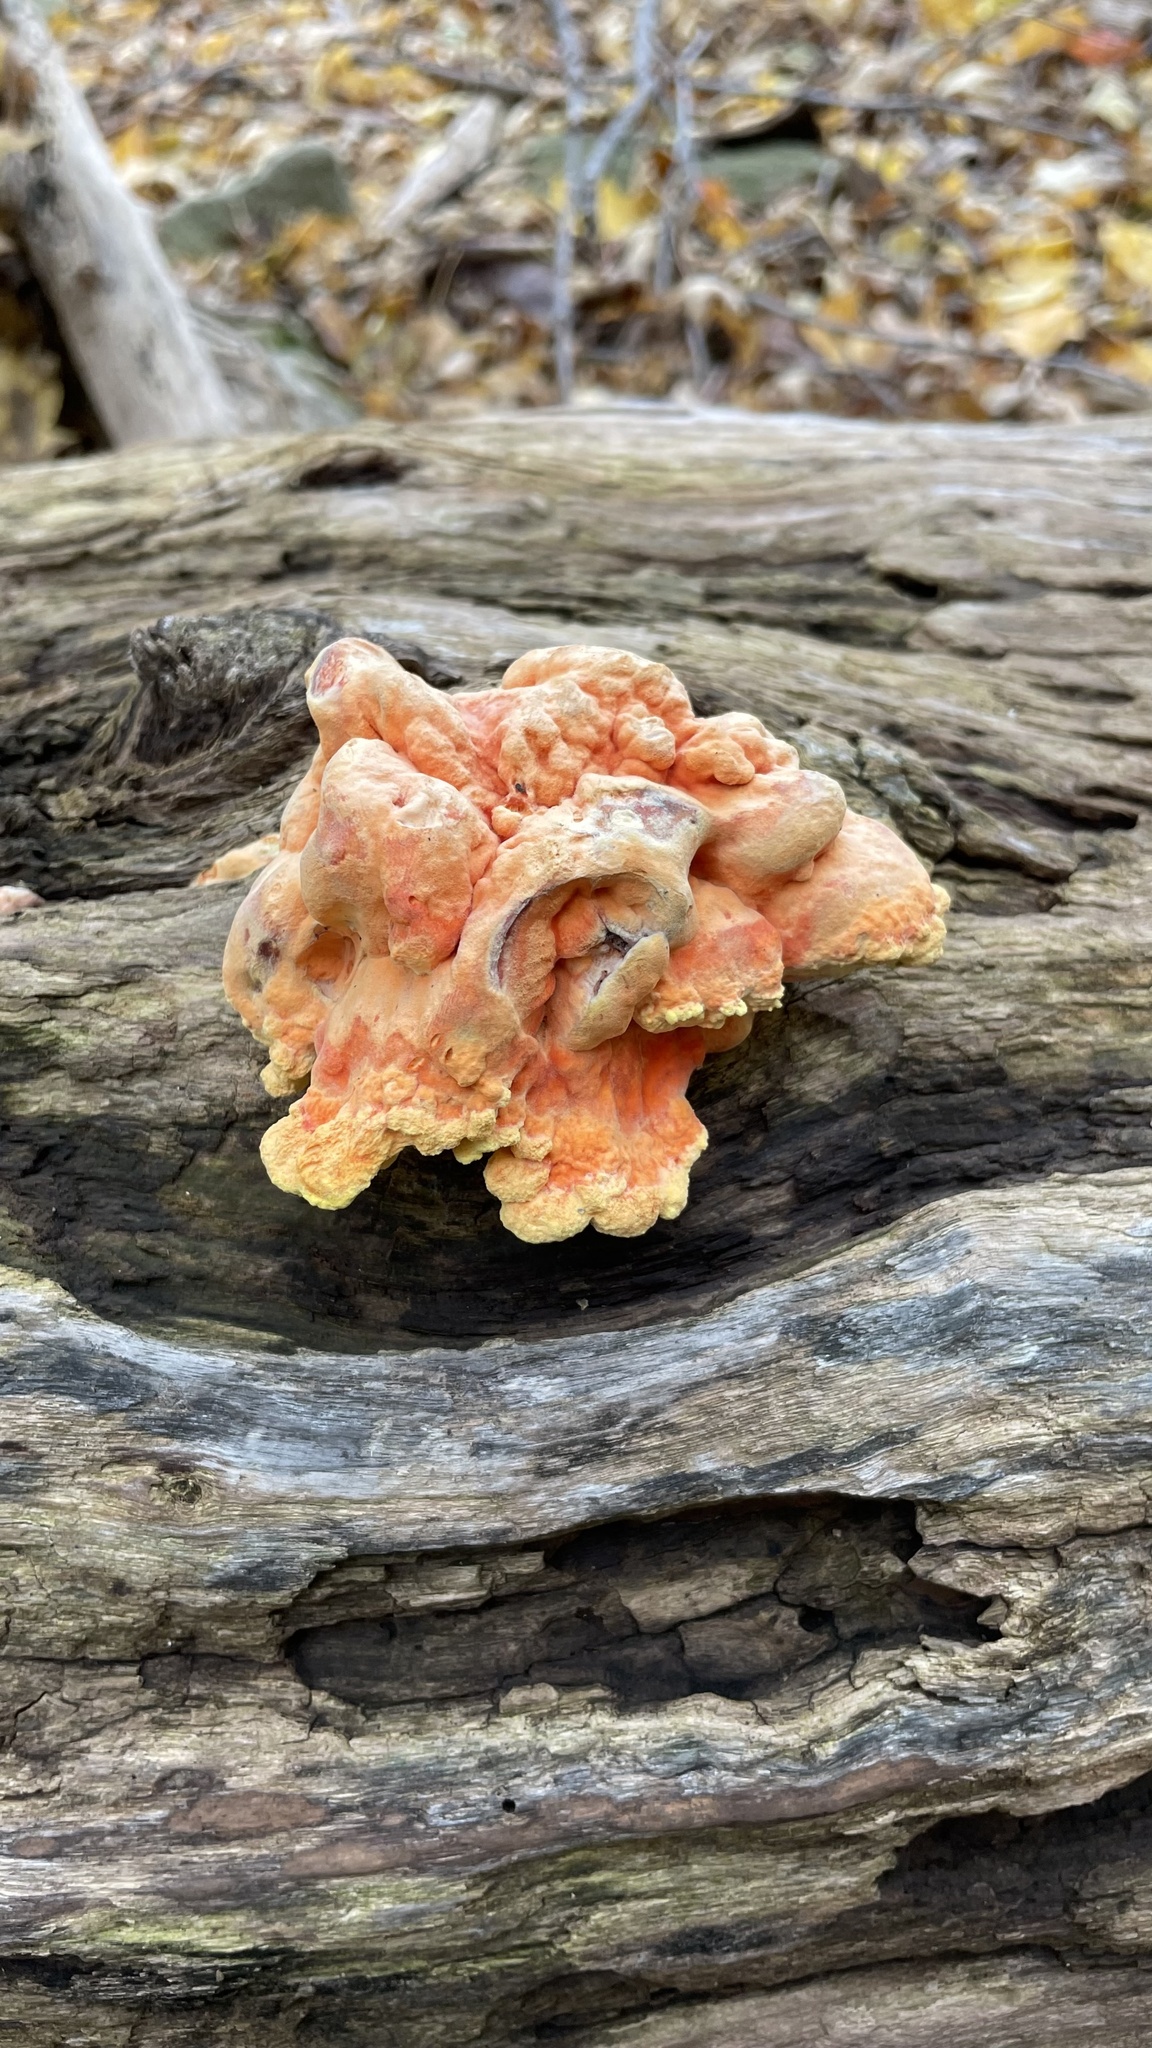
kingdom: Fungi
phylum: Basidiomycota
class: Agaricomycetes
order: Polyporales
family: Laetiporaceae
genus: Laetiporus
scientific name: Laetiporus sulphureus
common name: Chicken of the woods
